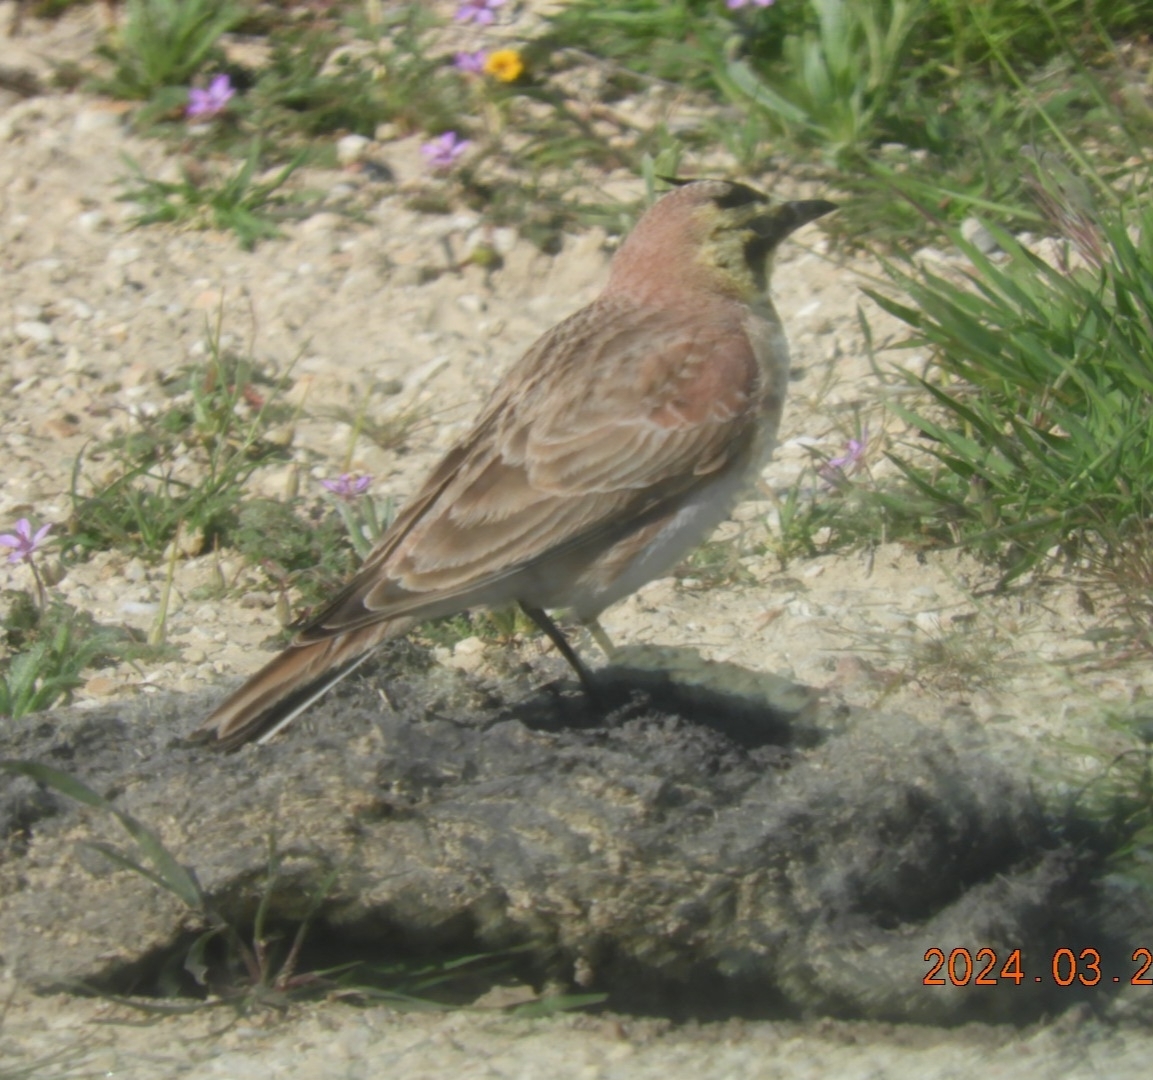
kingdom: Animalia
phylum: Chordata
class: Aves
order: Passeriformes
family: Alaudidae
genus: Eremophila
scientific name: Eremophila alpestris
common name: Horned lark
